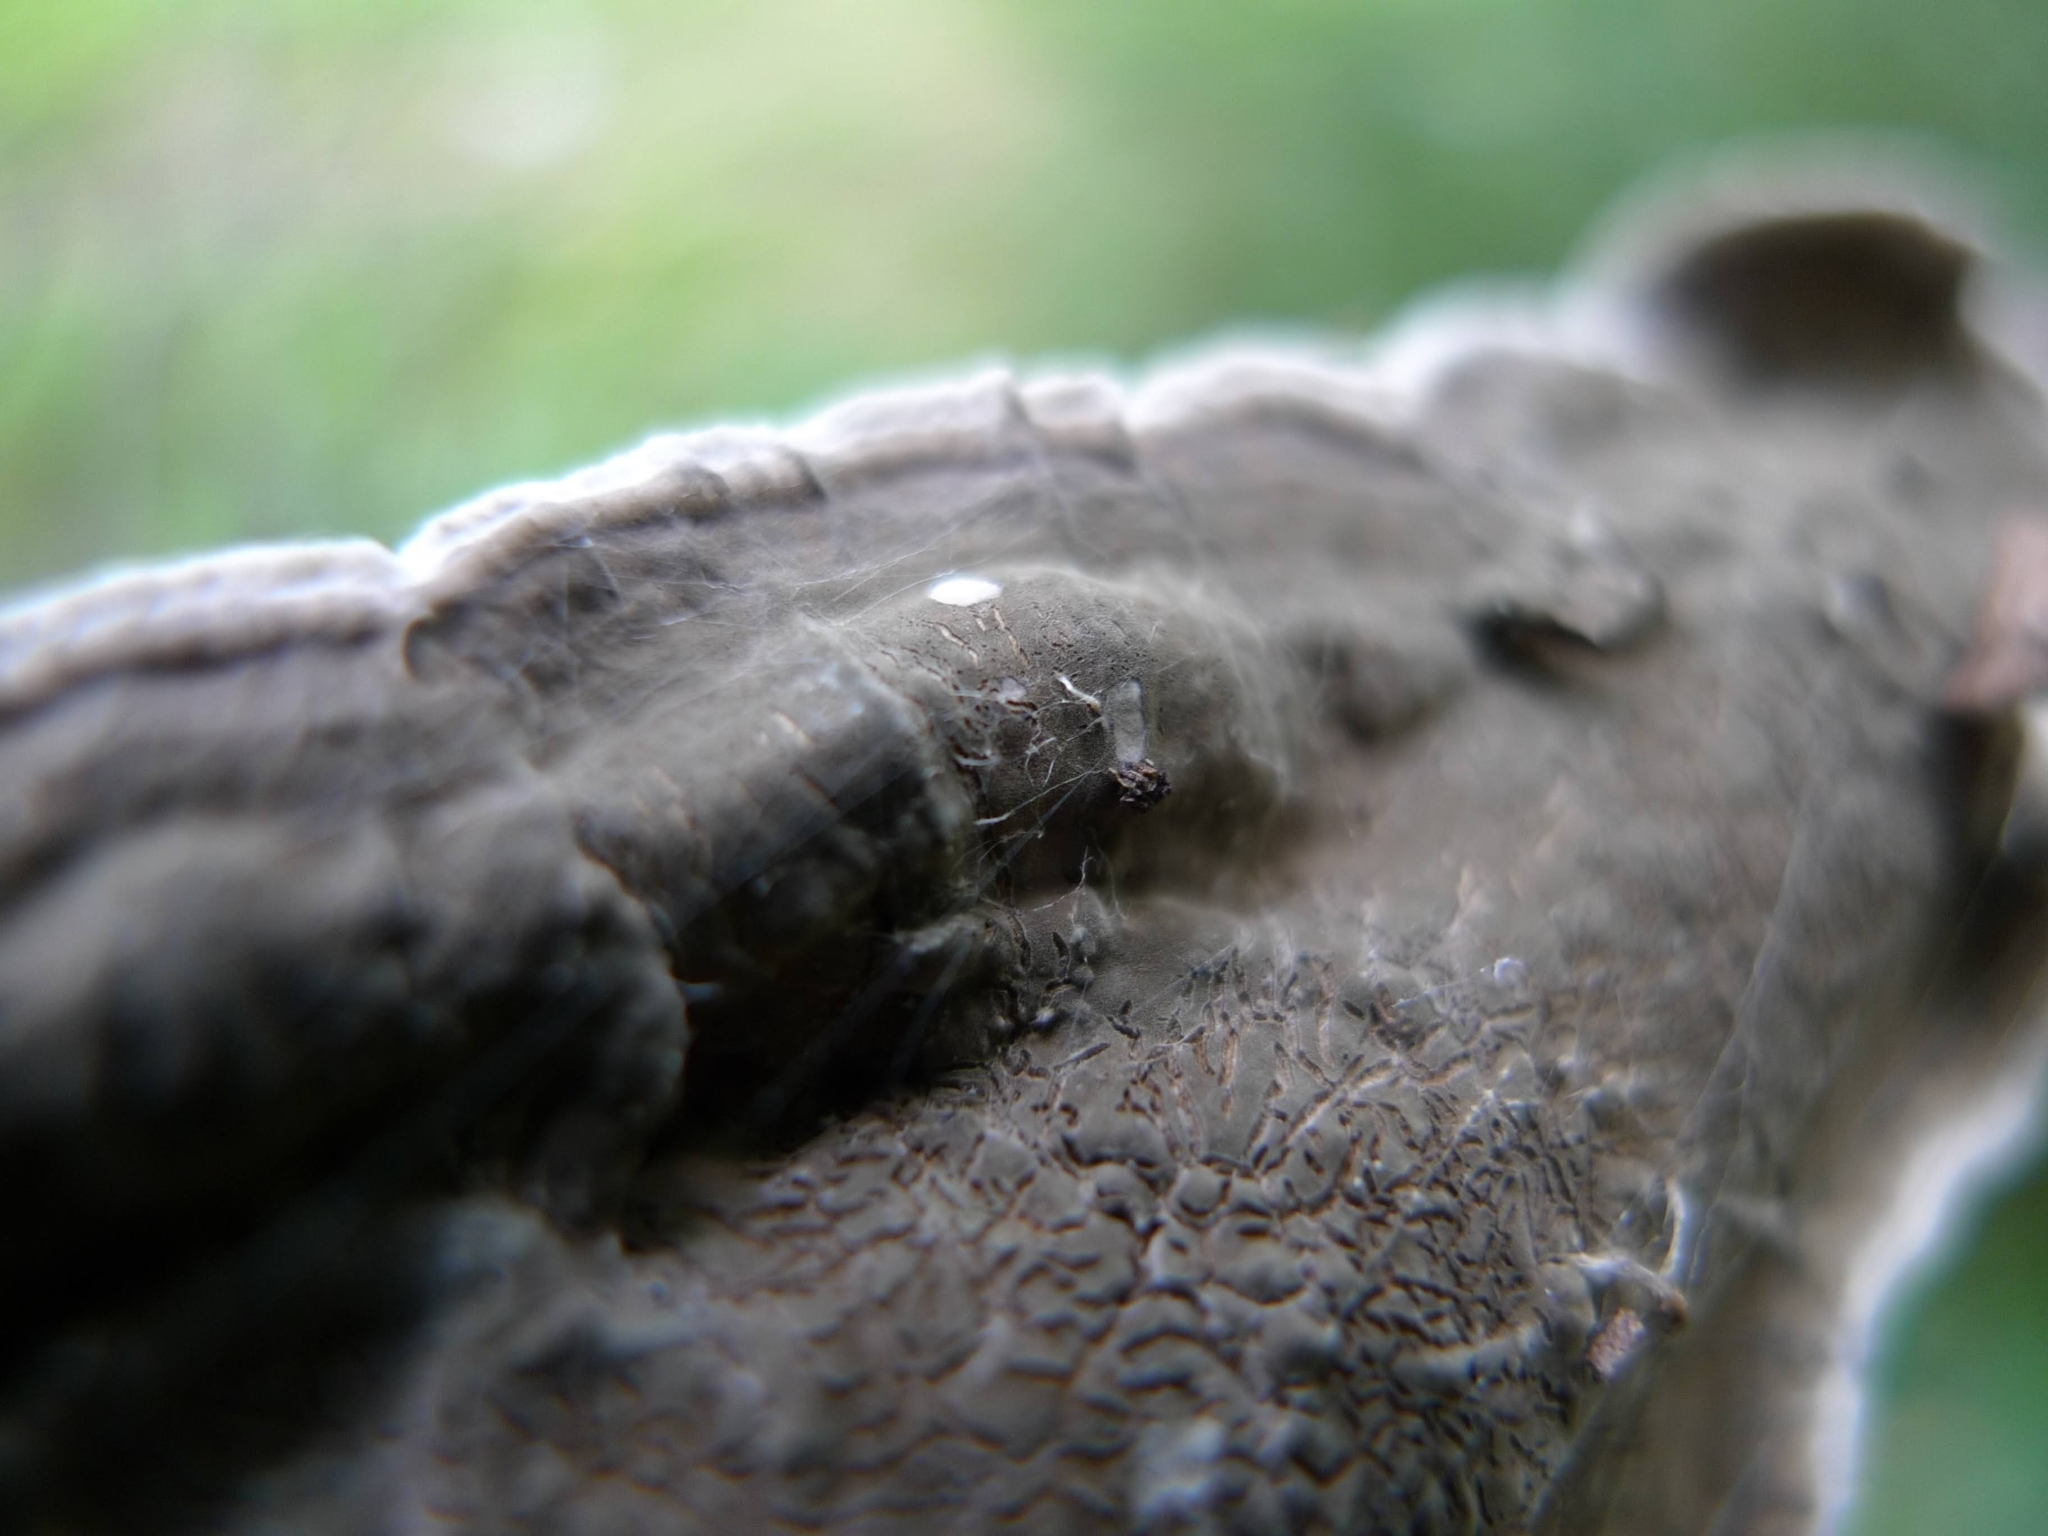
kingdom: Fungi
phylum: Basidiomycota
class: Agaricomycetes
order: Russulales
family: Stereaceae
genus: Stereum
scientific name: Stereum rugosum
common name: Bleeding broadleaf crust
